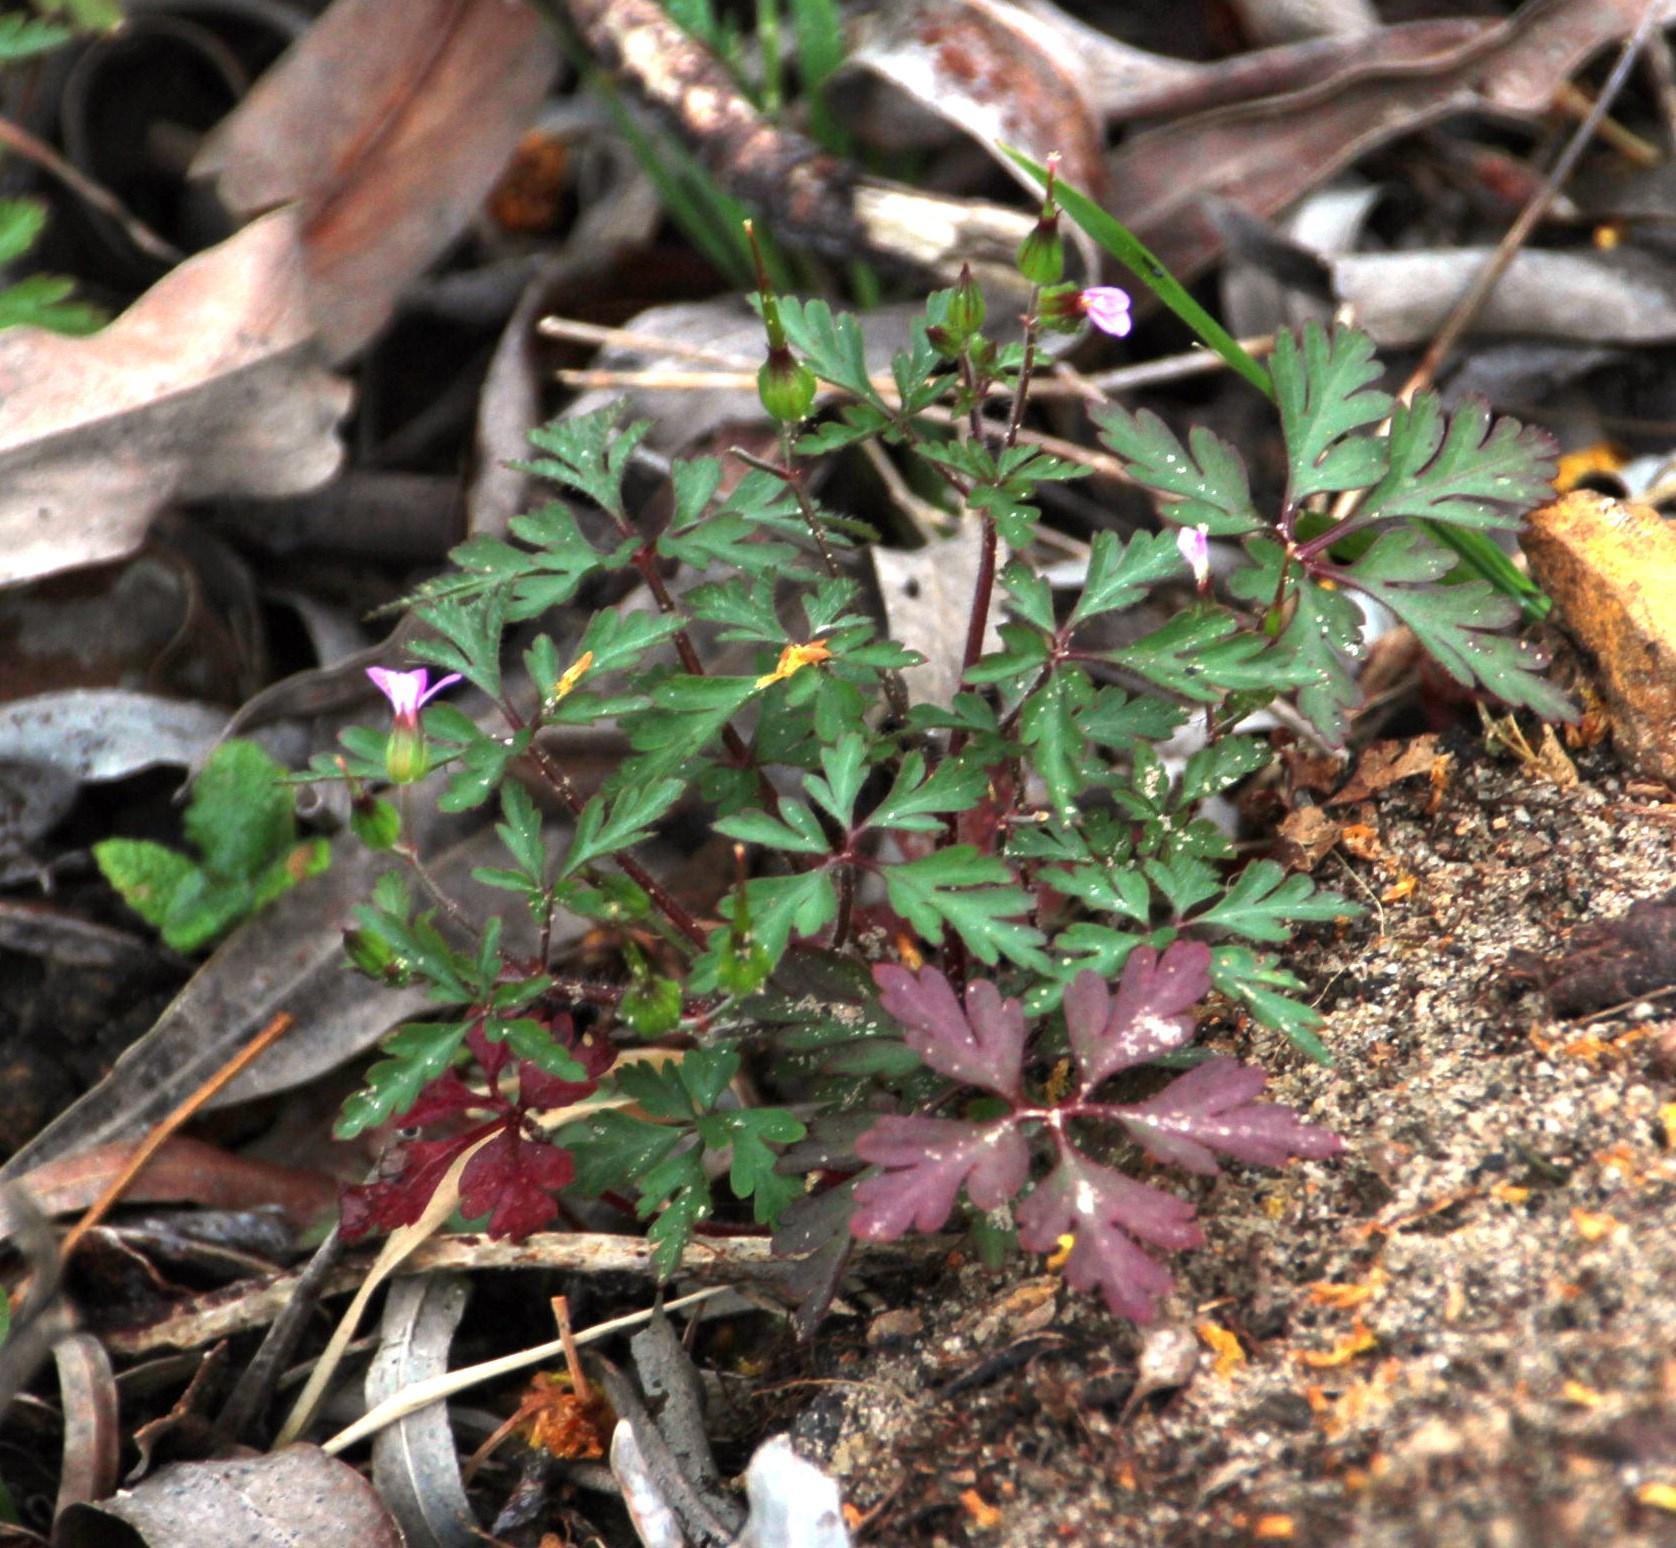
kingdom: Plantae
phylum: Tracheophyta
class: Magnoliopsida
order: Geraniales
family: Geraniaceae
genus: Geranium
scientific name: Geranium purpureum
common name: Little-robin
